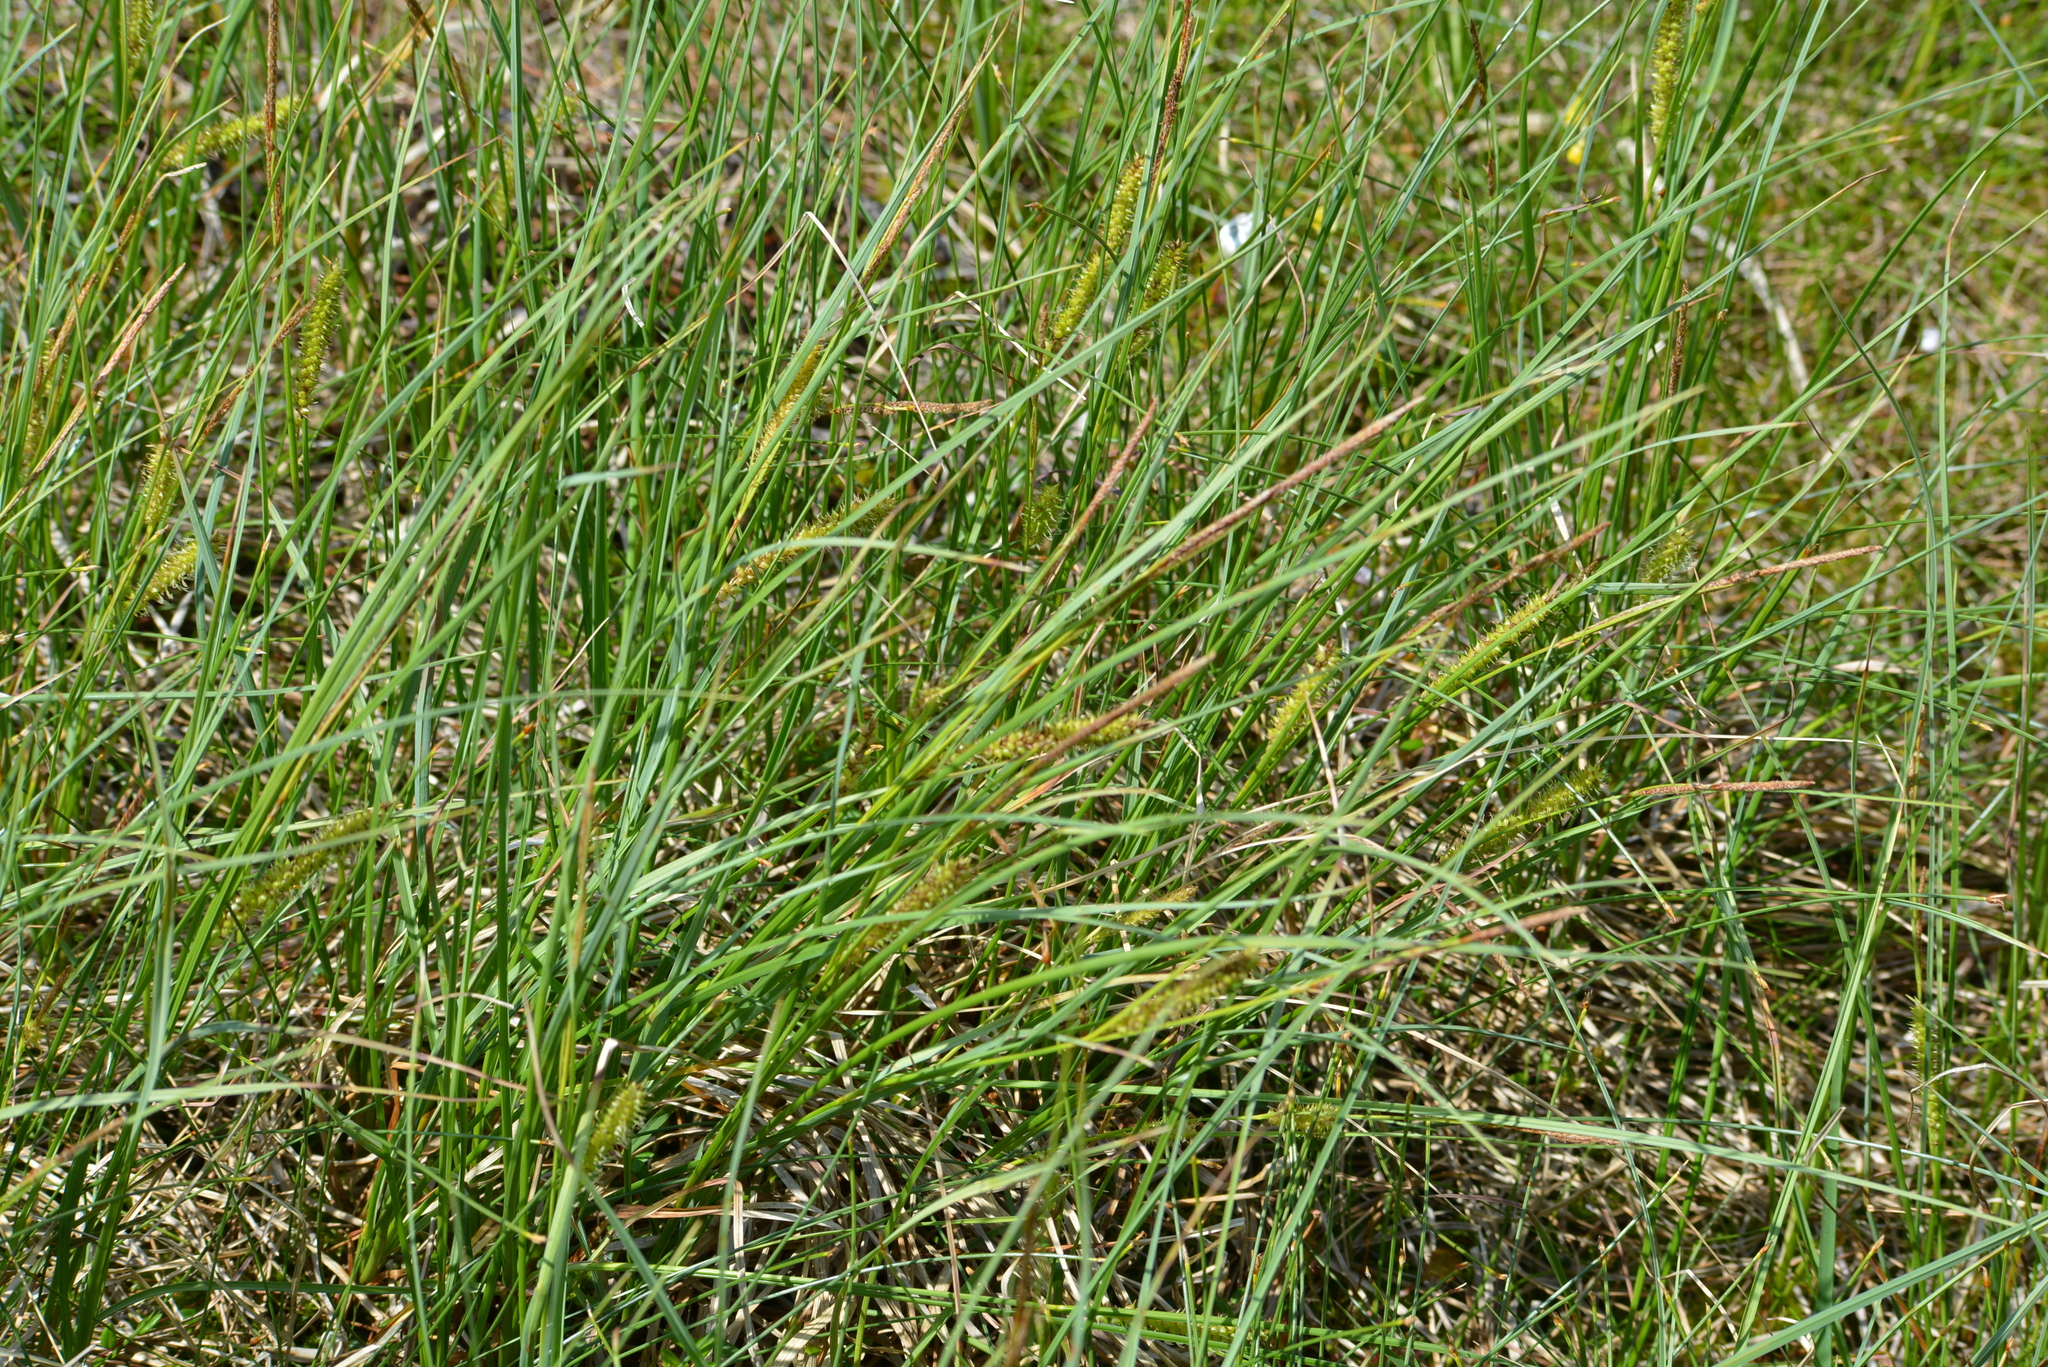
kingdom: Plantae
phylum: Tracheophyta
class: Liliopsida
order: Poales
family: Cyperaceae
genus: Carex
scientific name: Carex rostrata
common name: Bottle sedge
